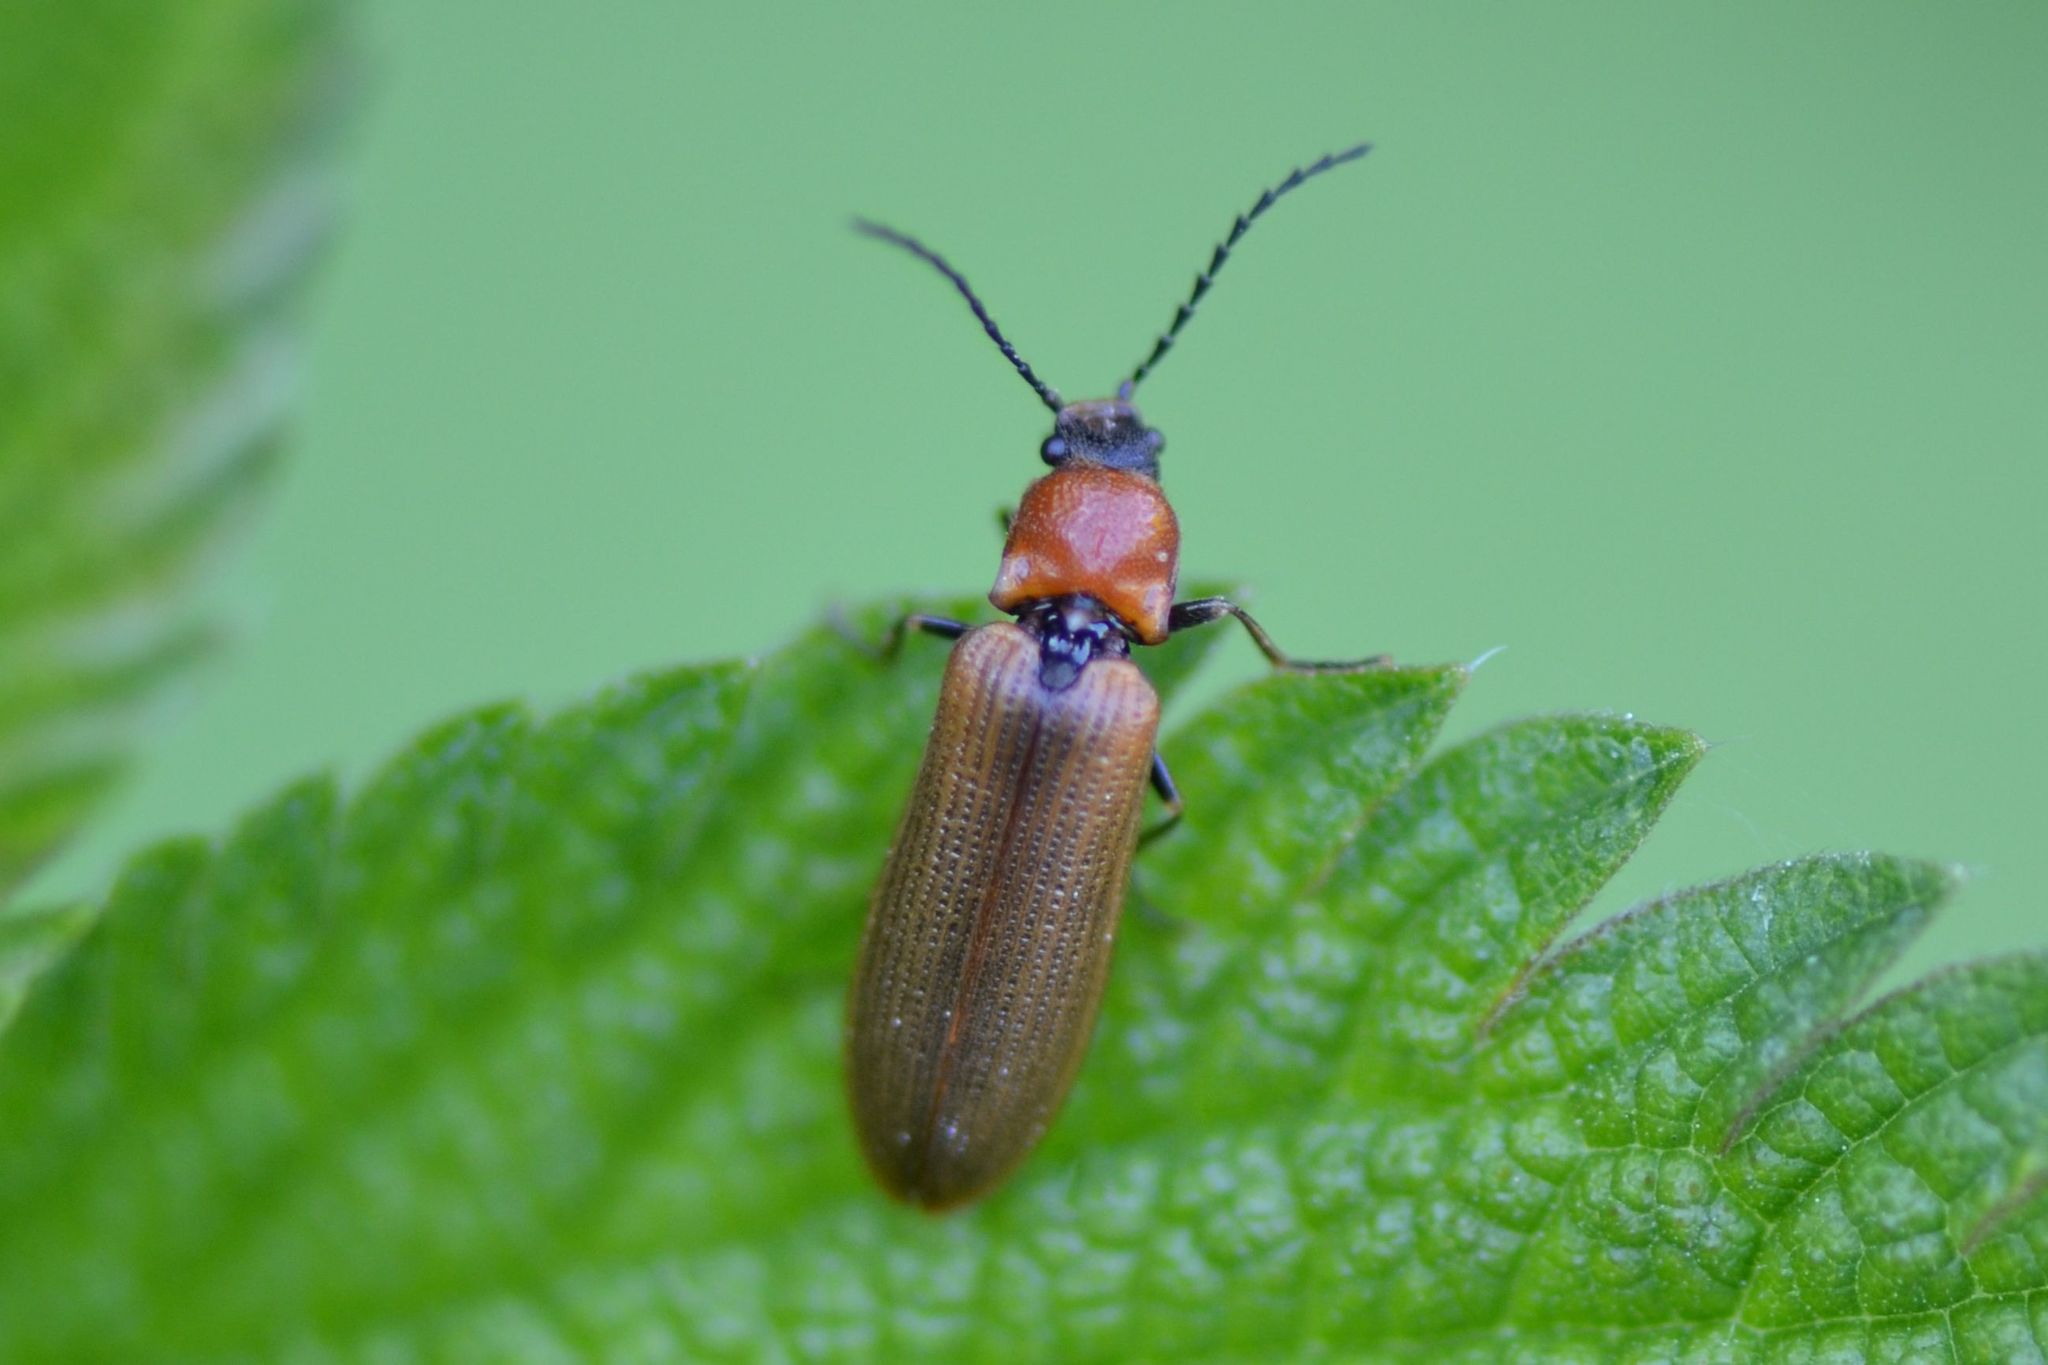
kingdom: Animalia
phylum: Arthropoda
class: Insecta
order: Coleoptera
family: Elateridae
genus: Denticollis
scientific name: Denticollis linearis
